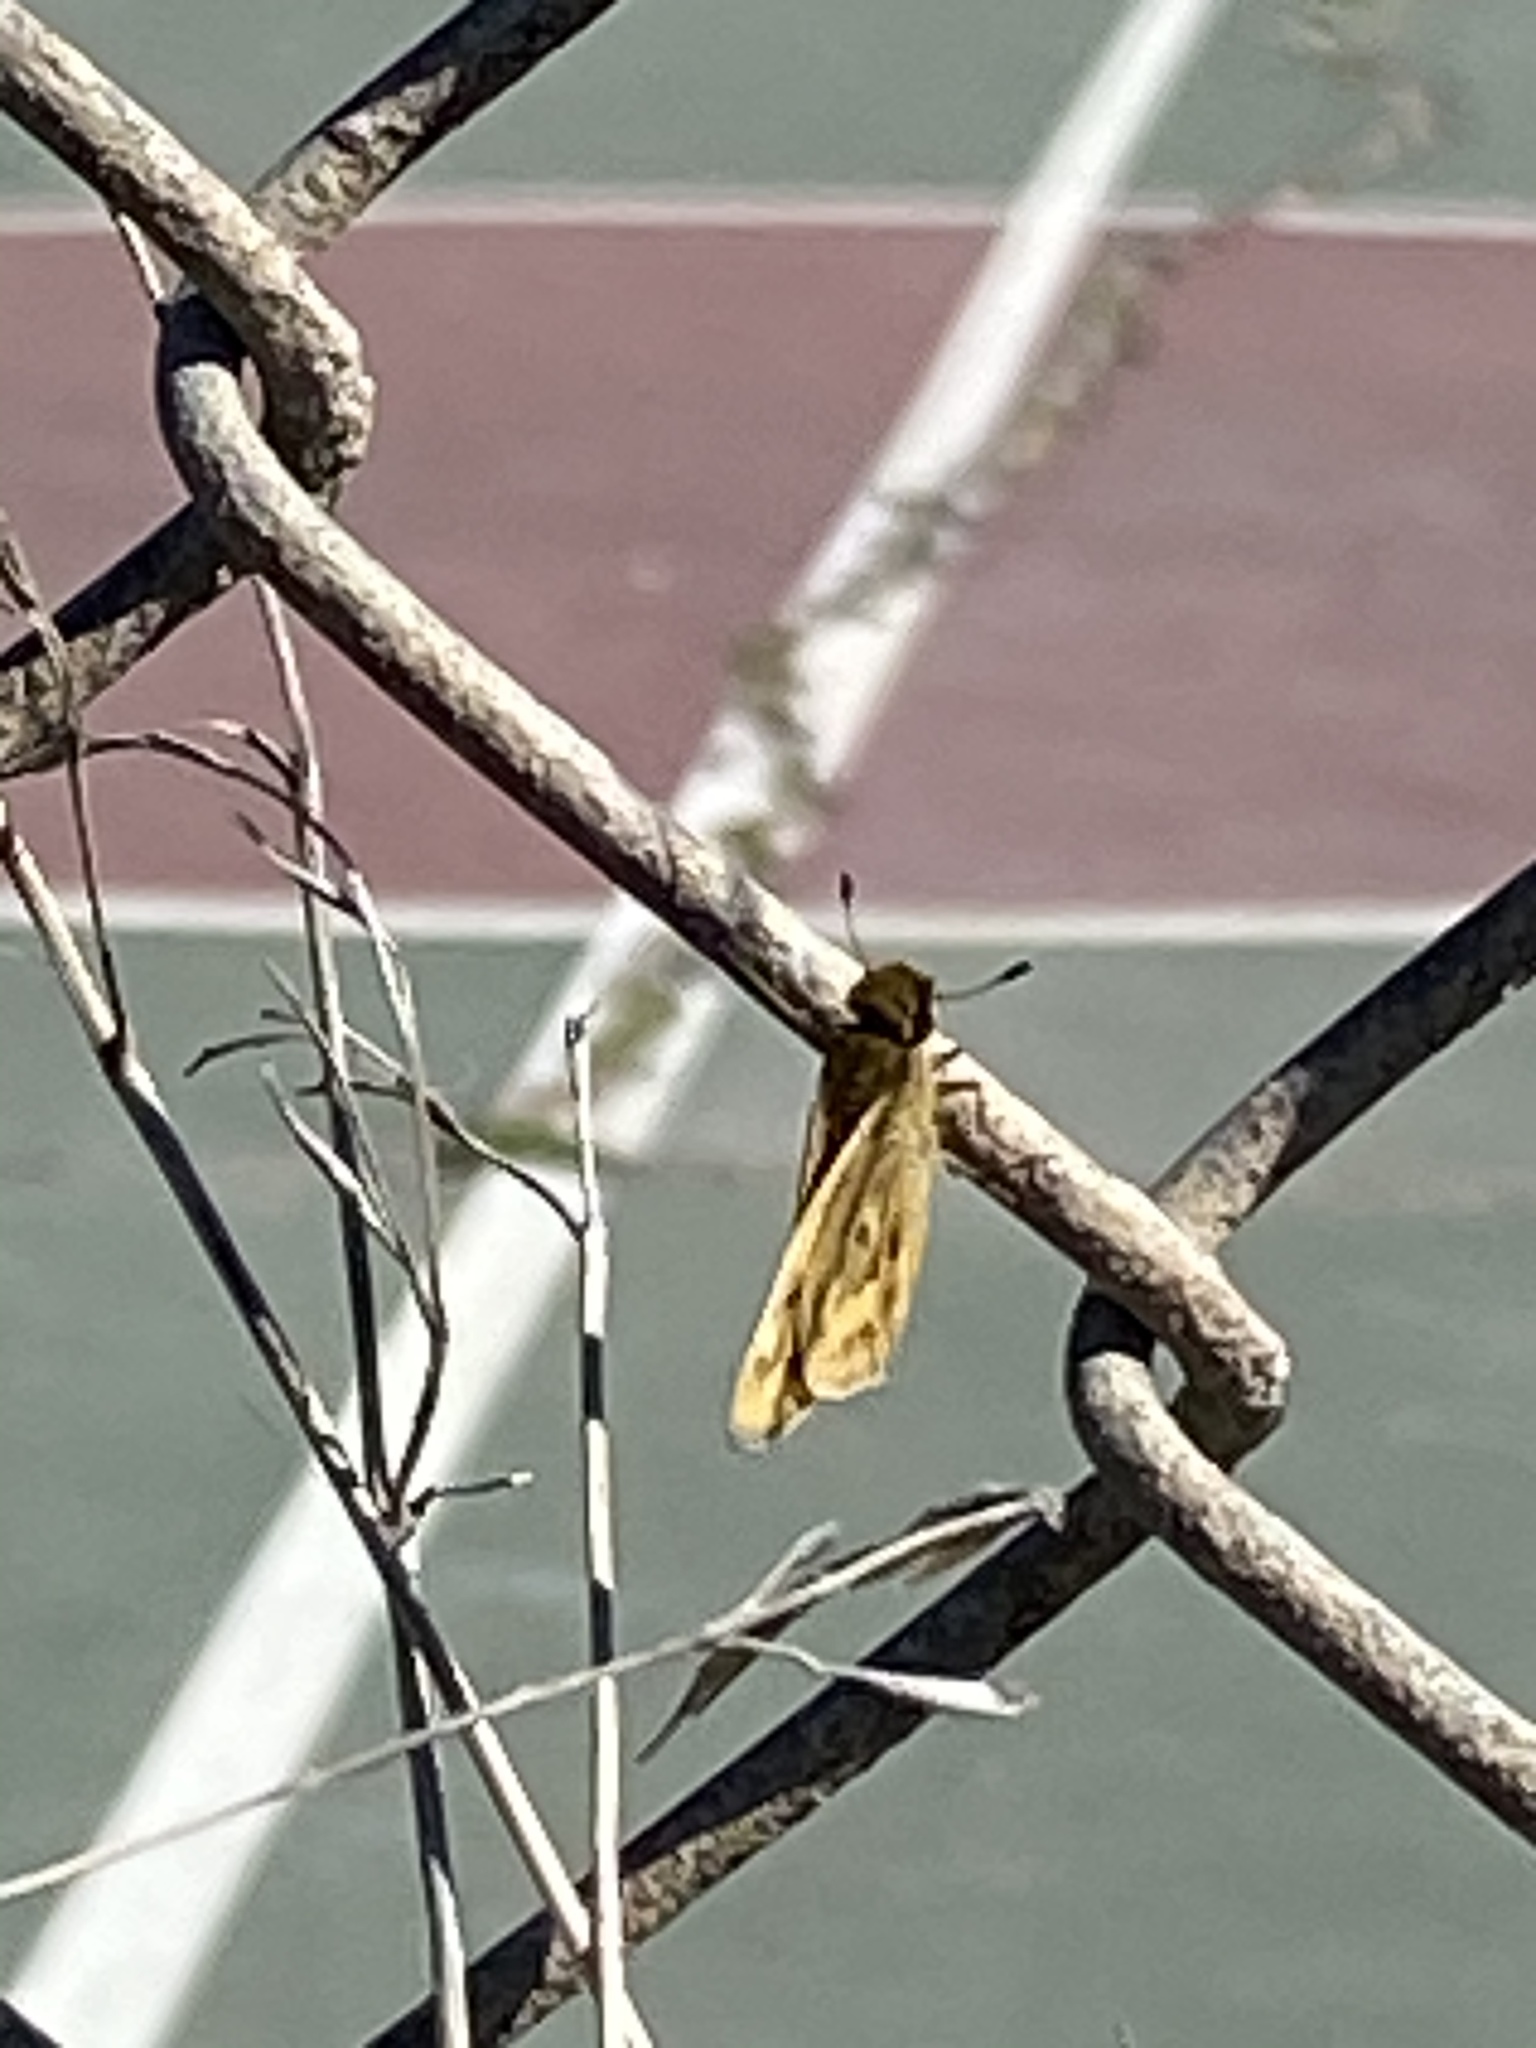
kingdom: Animalia
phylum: Arthropoda
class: Insecta
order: Lepidoptera
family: Hesperiidae
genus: Hylephila
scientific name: Hylephila phyleus
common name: Fiery skipper
